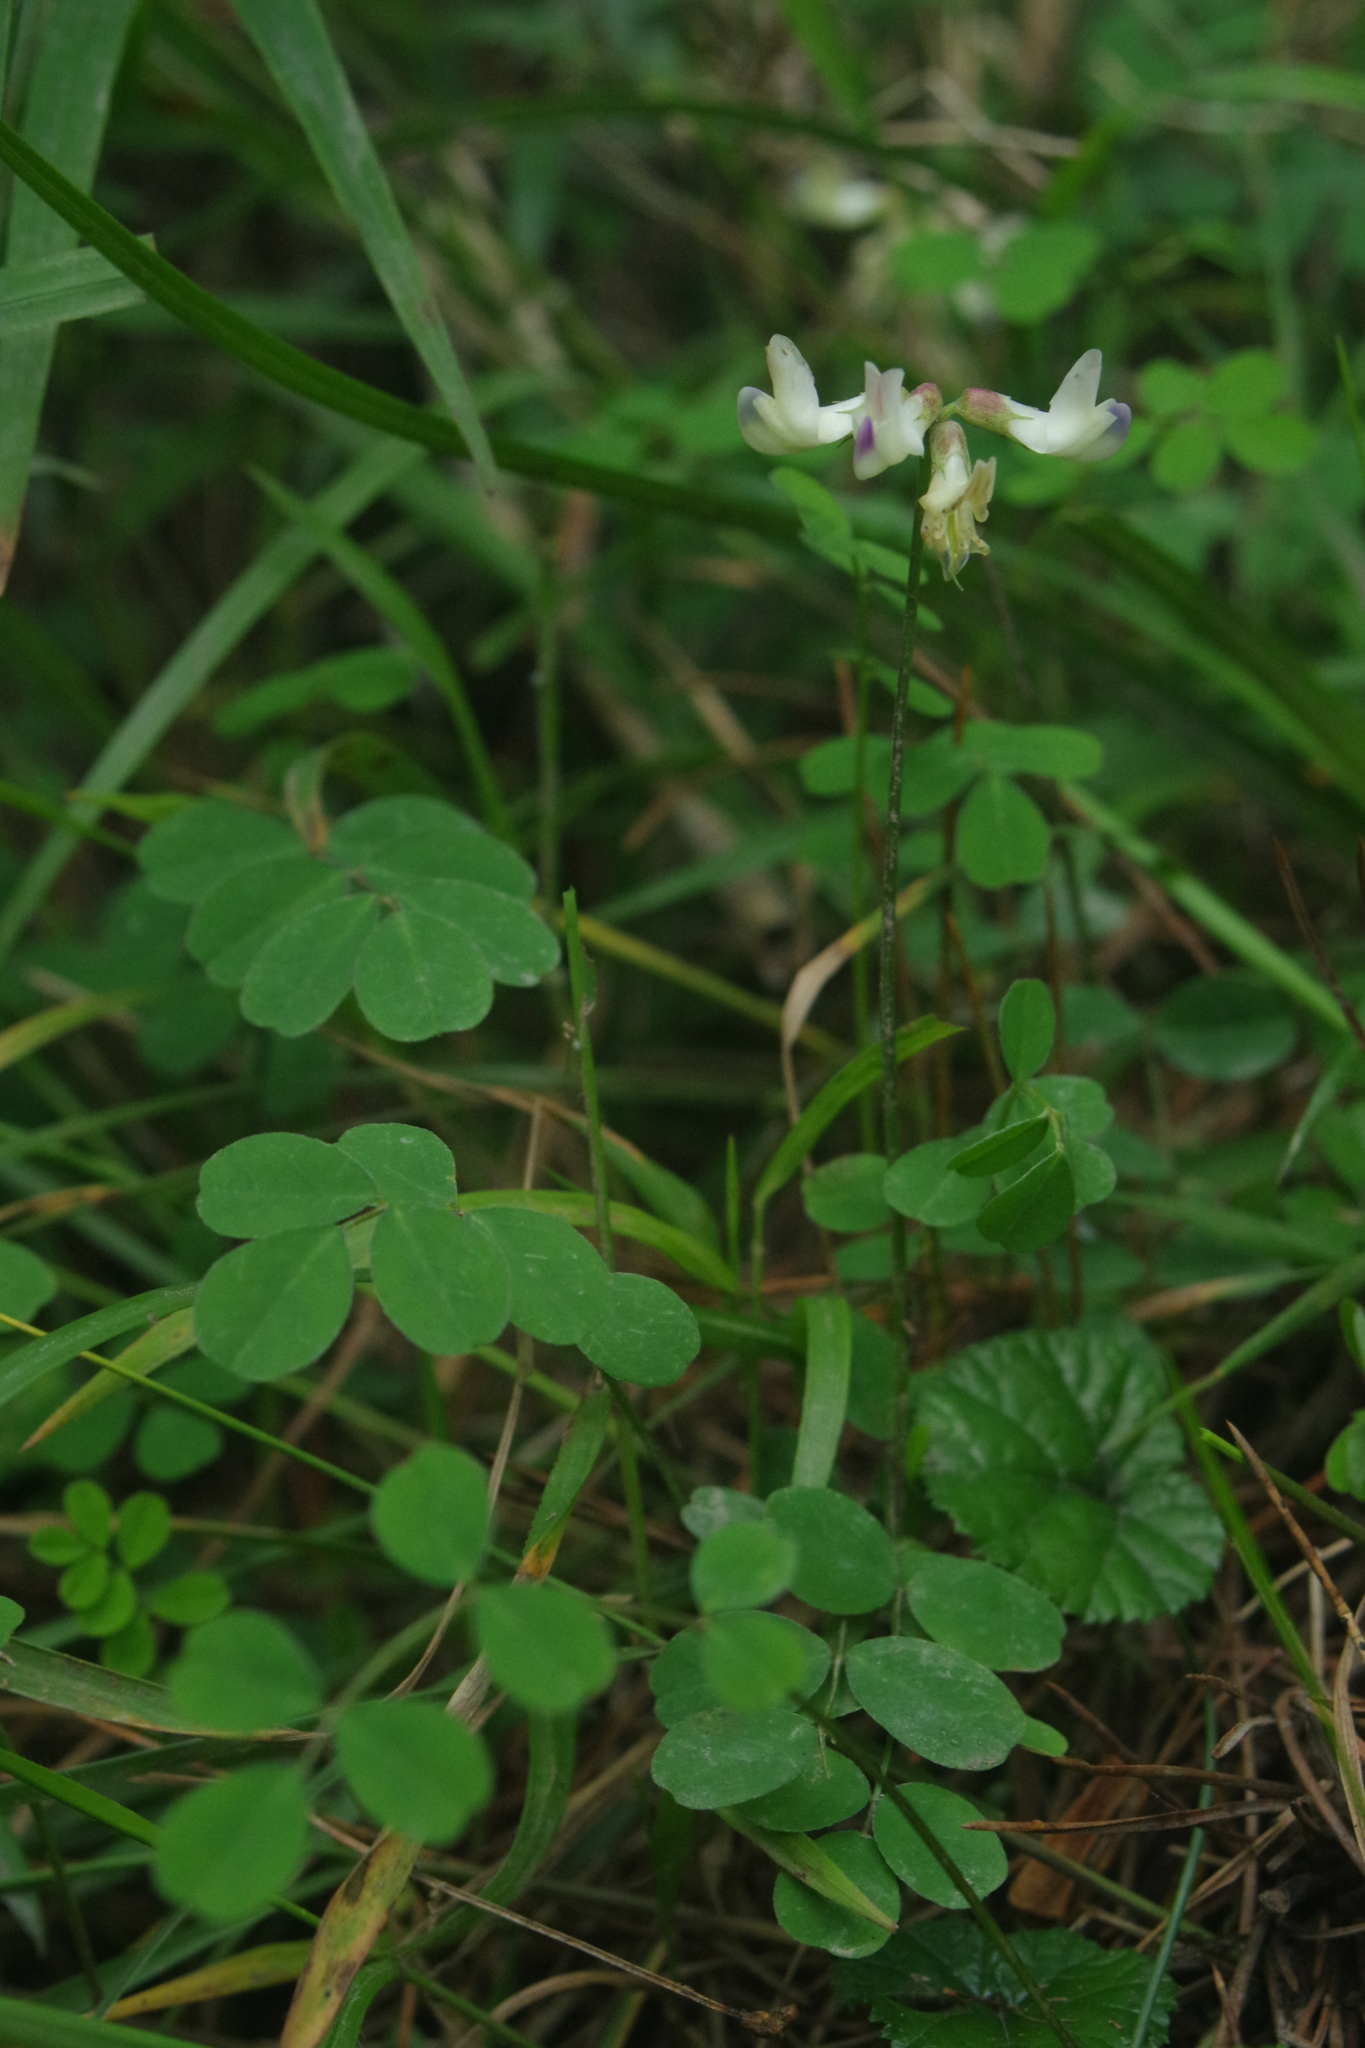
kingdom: Plantae
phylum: Tracheophyta
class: Magnoliopsida
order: Fabales
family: Fabaceae
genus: Astragalus
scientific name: Astragalus nokoensis
